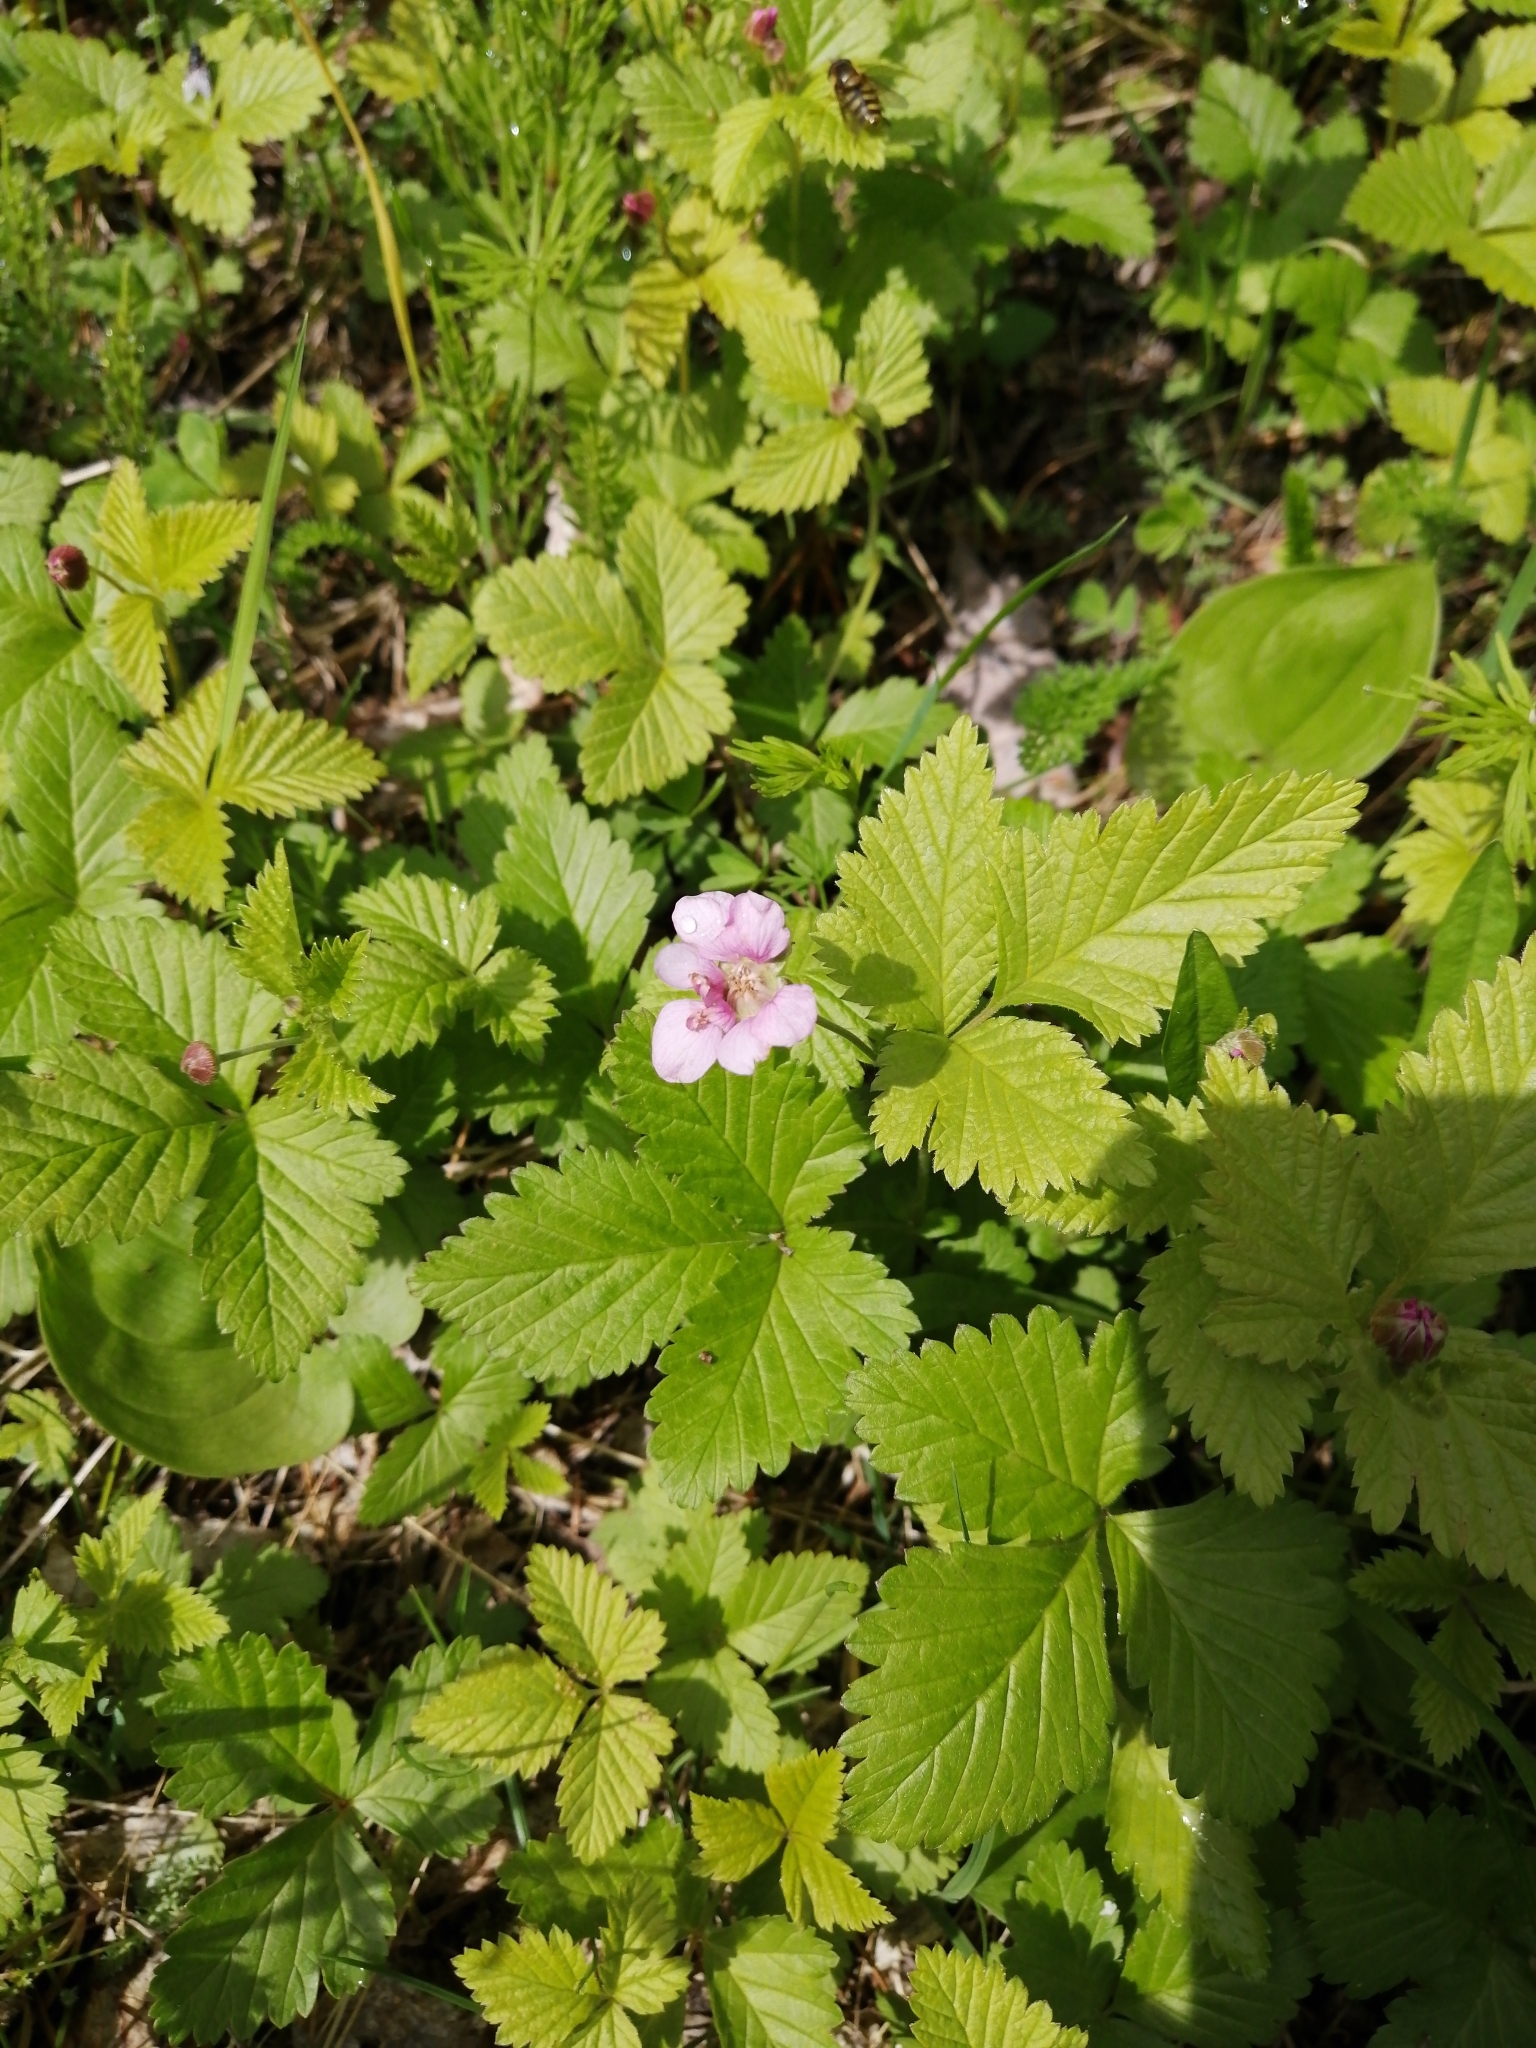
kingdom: Plantae
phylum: Tracheophyta
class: Magnoliopsida
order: Rosales
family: Rosaceae
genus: Rubus
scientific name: Rubus arcticus
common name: Arctic bramble
